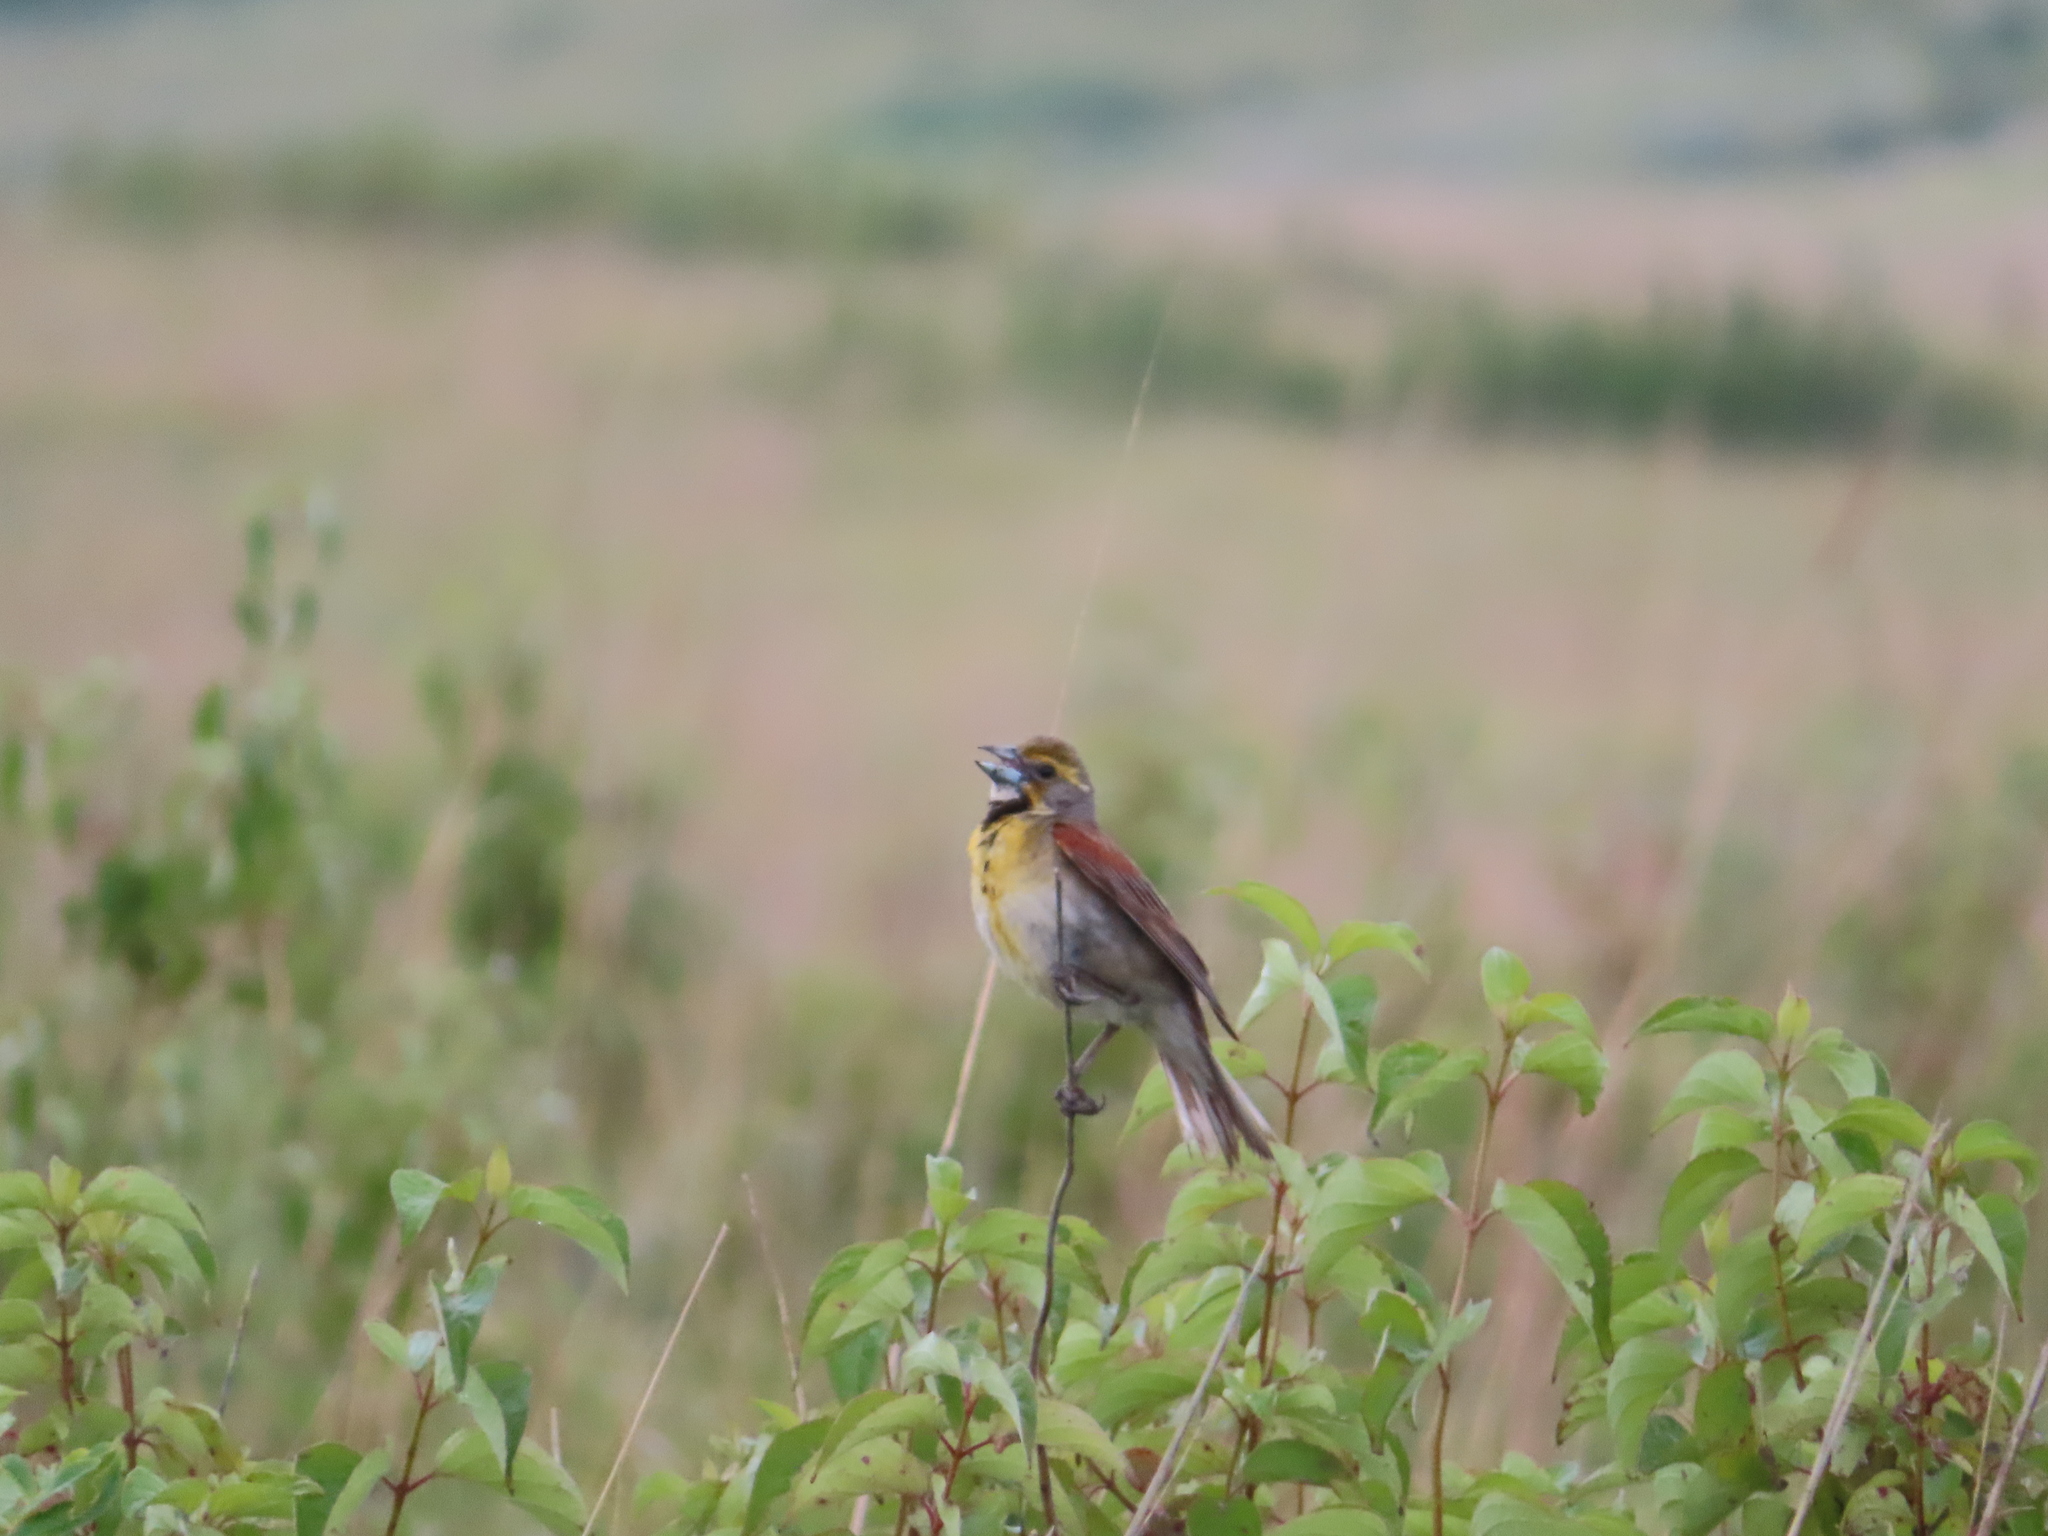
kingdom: Animalia
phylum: Chordata
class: Aves
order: Passeriformes
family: Cardinalidae
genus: Spiza
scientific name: Spiza americana
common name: Dickcissel
